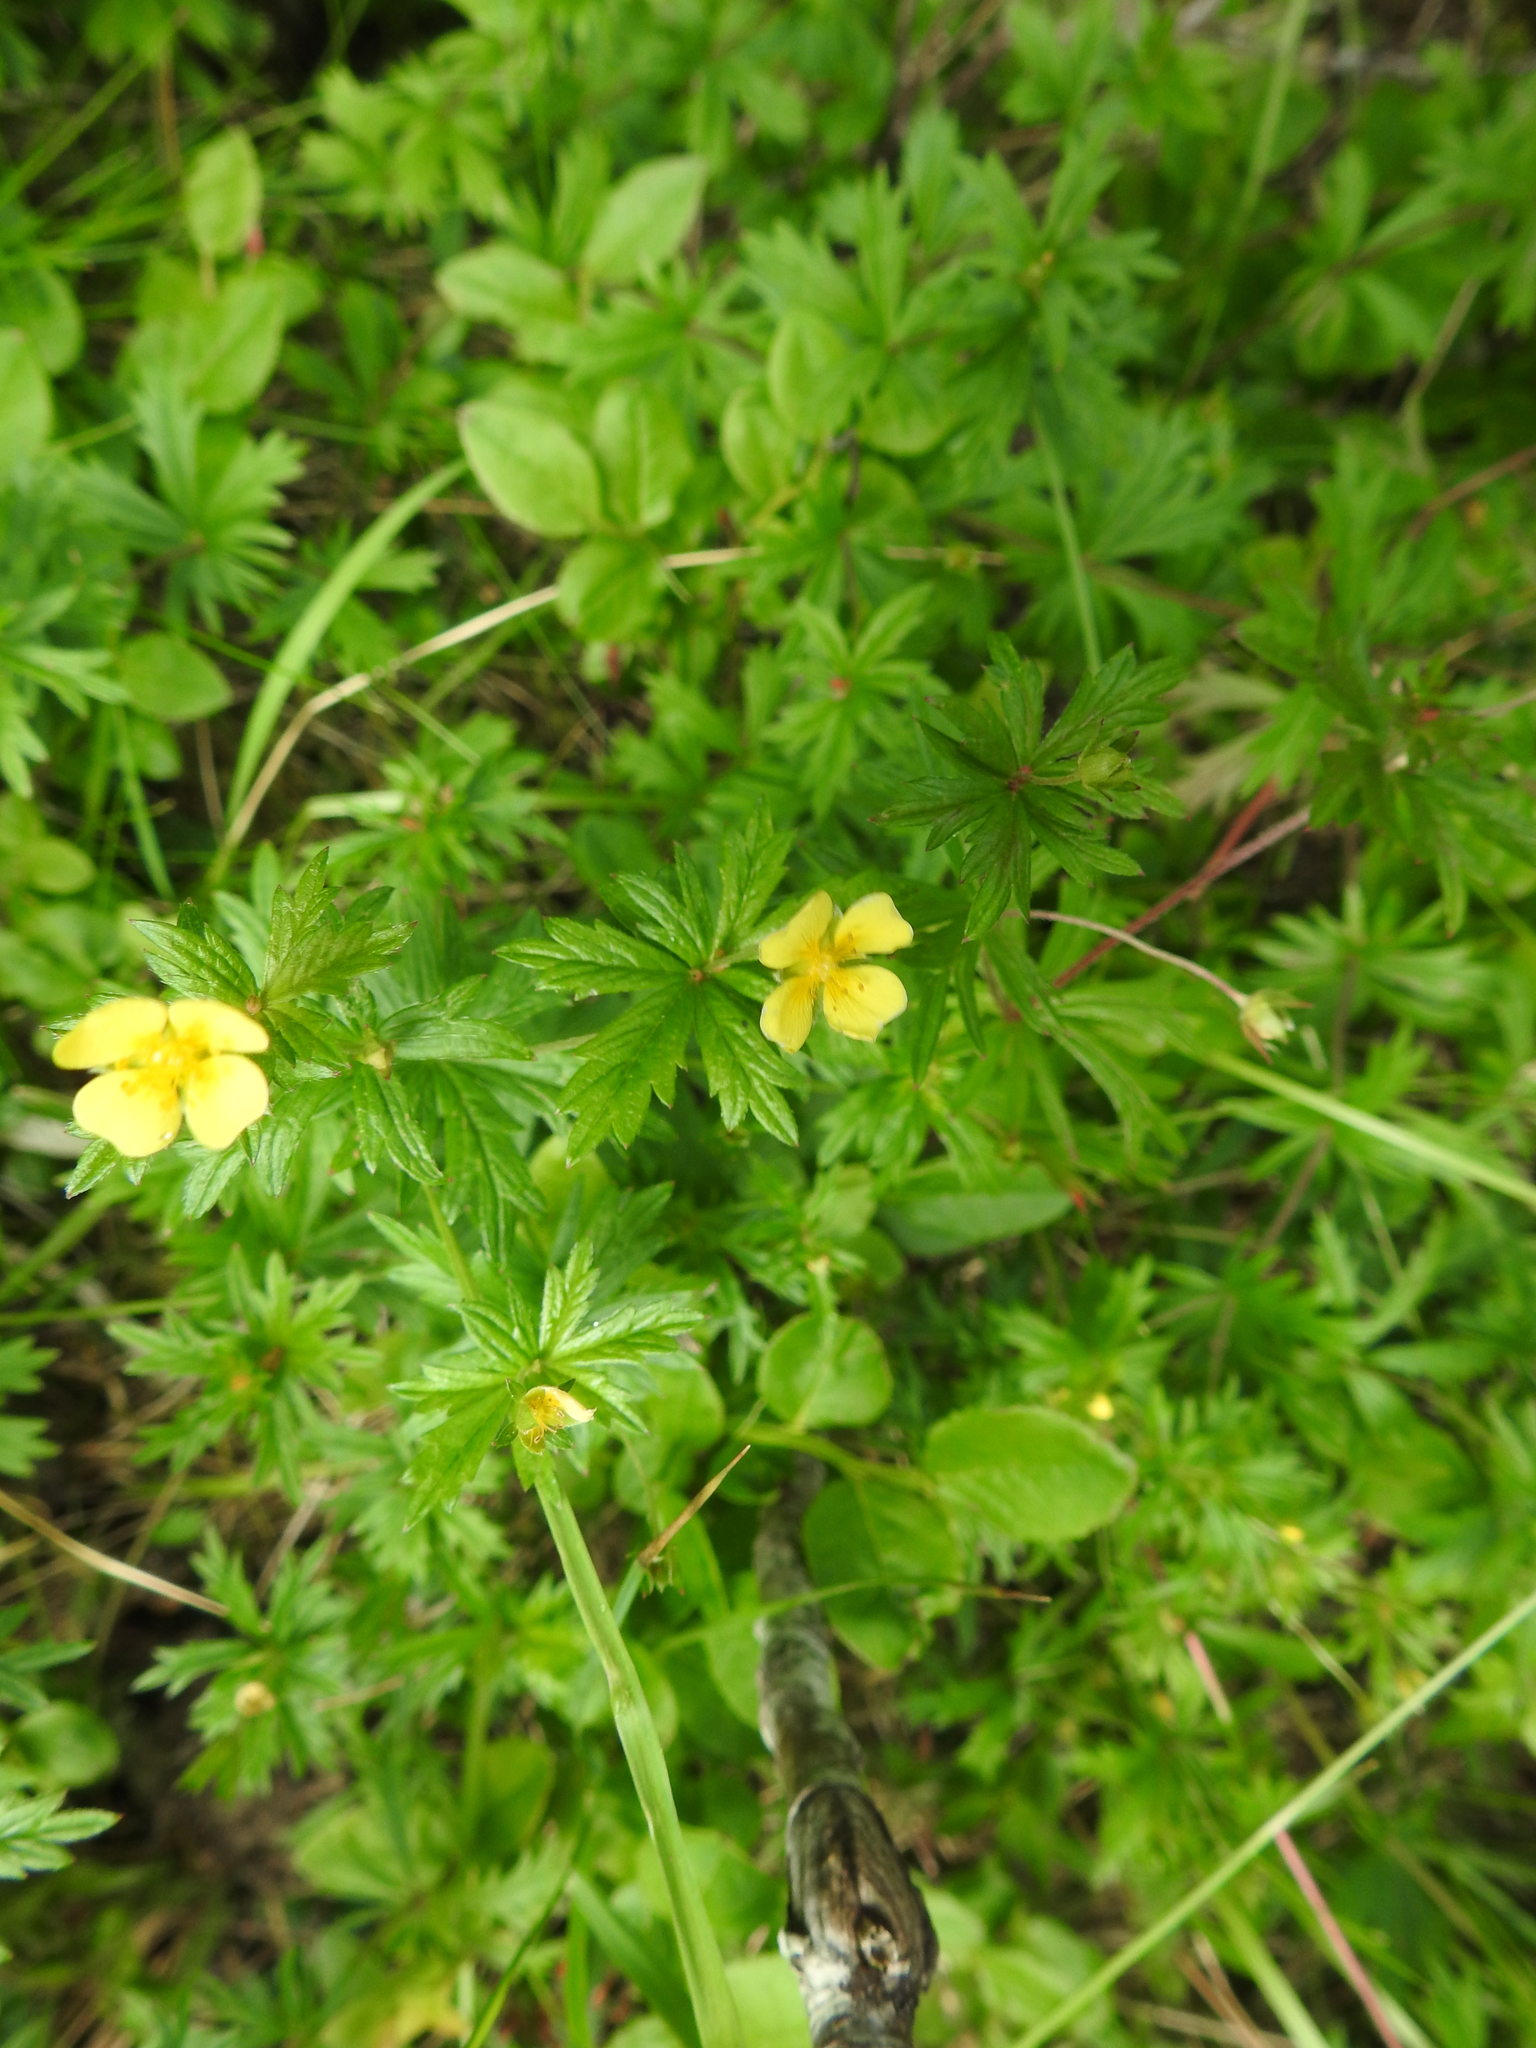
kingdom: Plantae
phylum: Tracheophyta
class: Magnoliopsida
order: Rosales
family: Rosaceae
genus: Potentilla
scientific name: Potentilla erecta
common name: Tormentil
